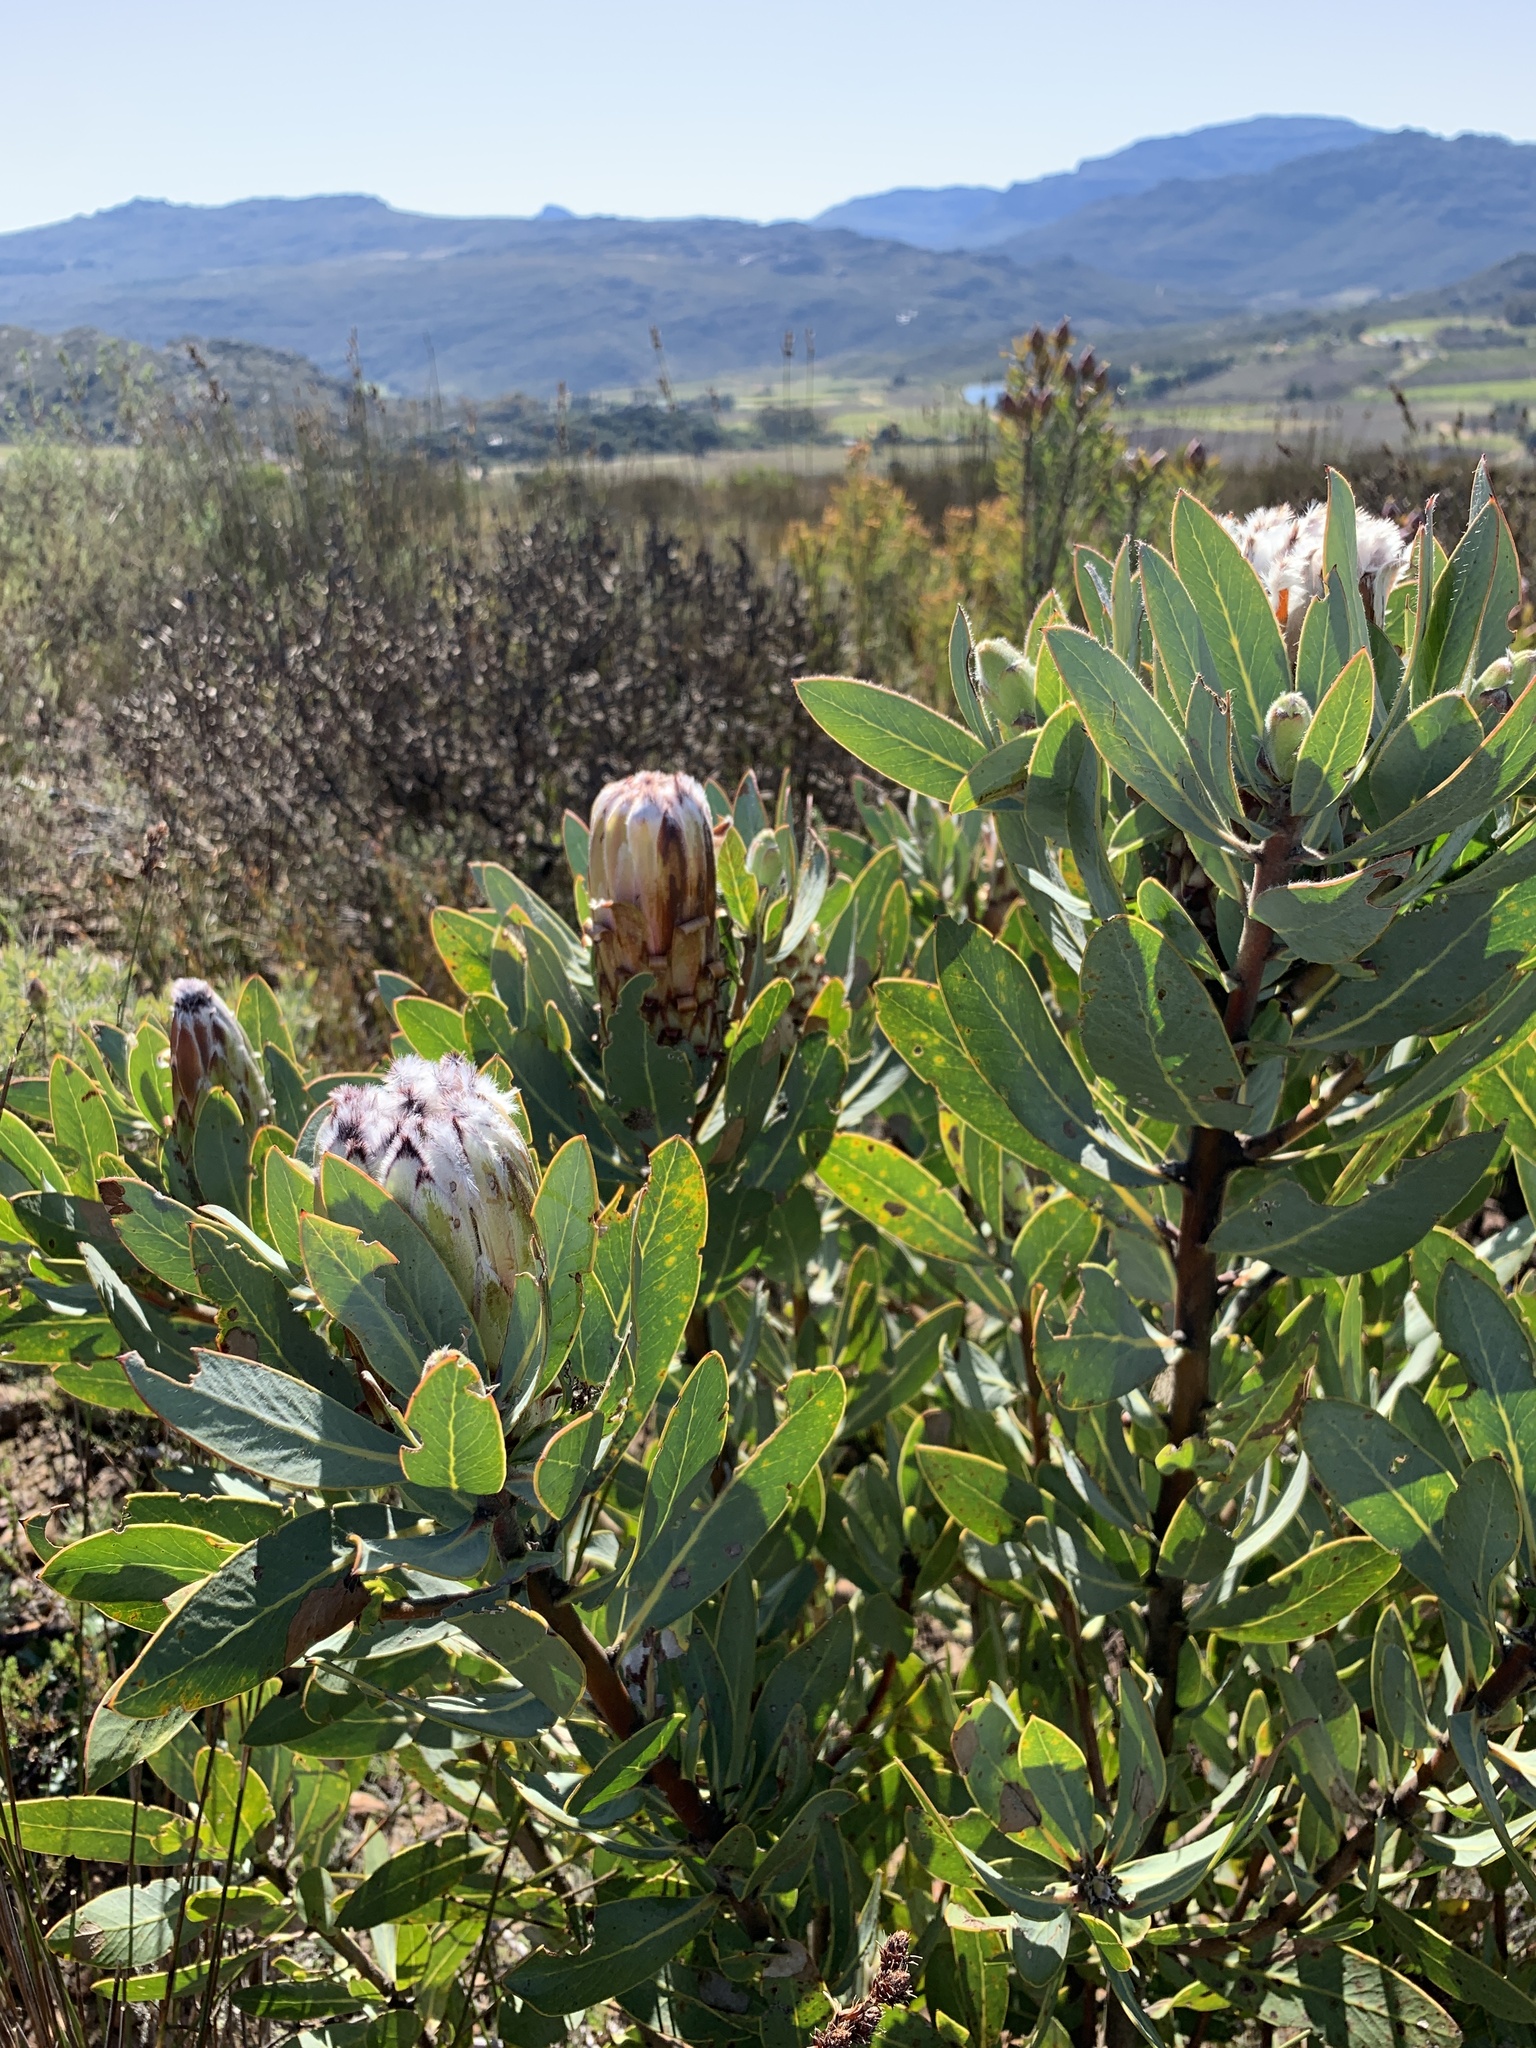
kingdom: Plantae
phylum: Tracheophyta
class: Magnoliopsida
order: Proteales
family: Proteaceae
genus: Protea
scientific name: Protea laurifolia
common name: Grey-leaf sugarbsh
